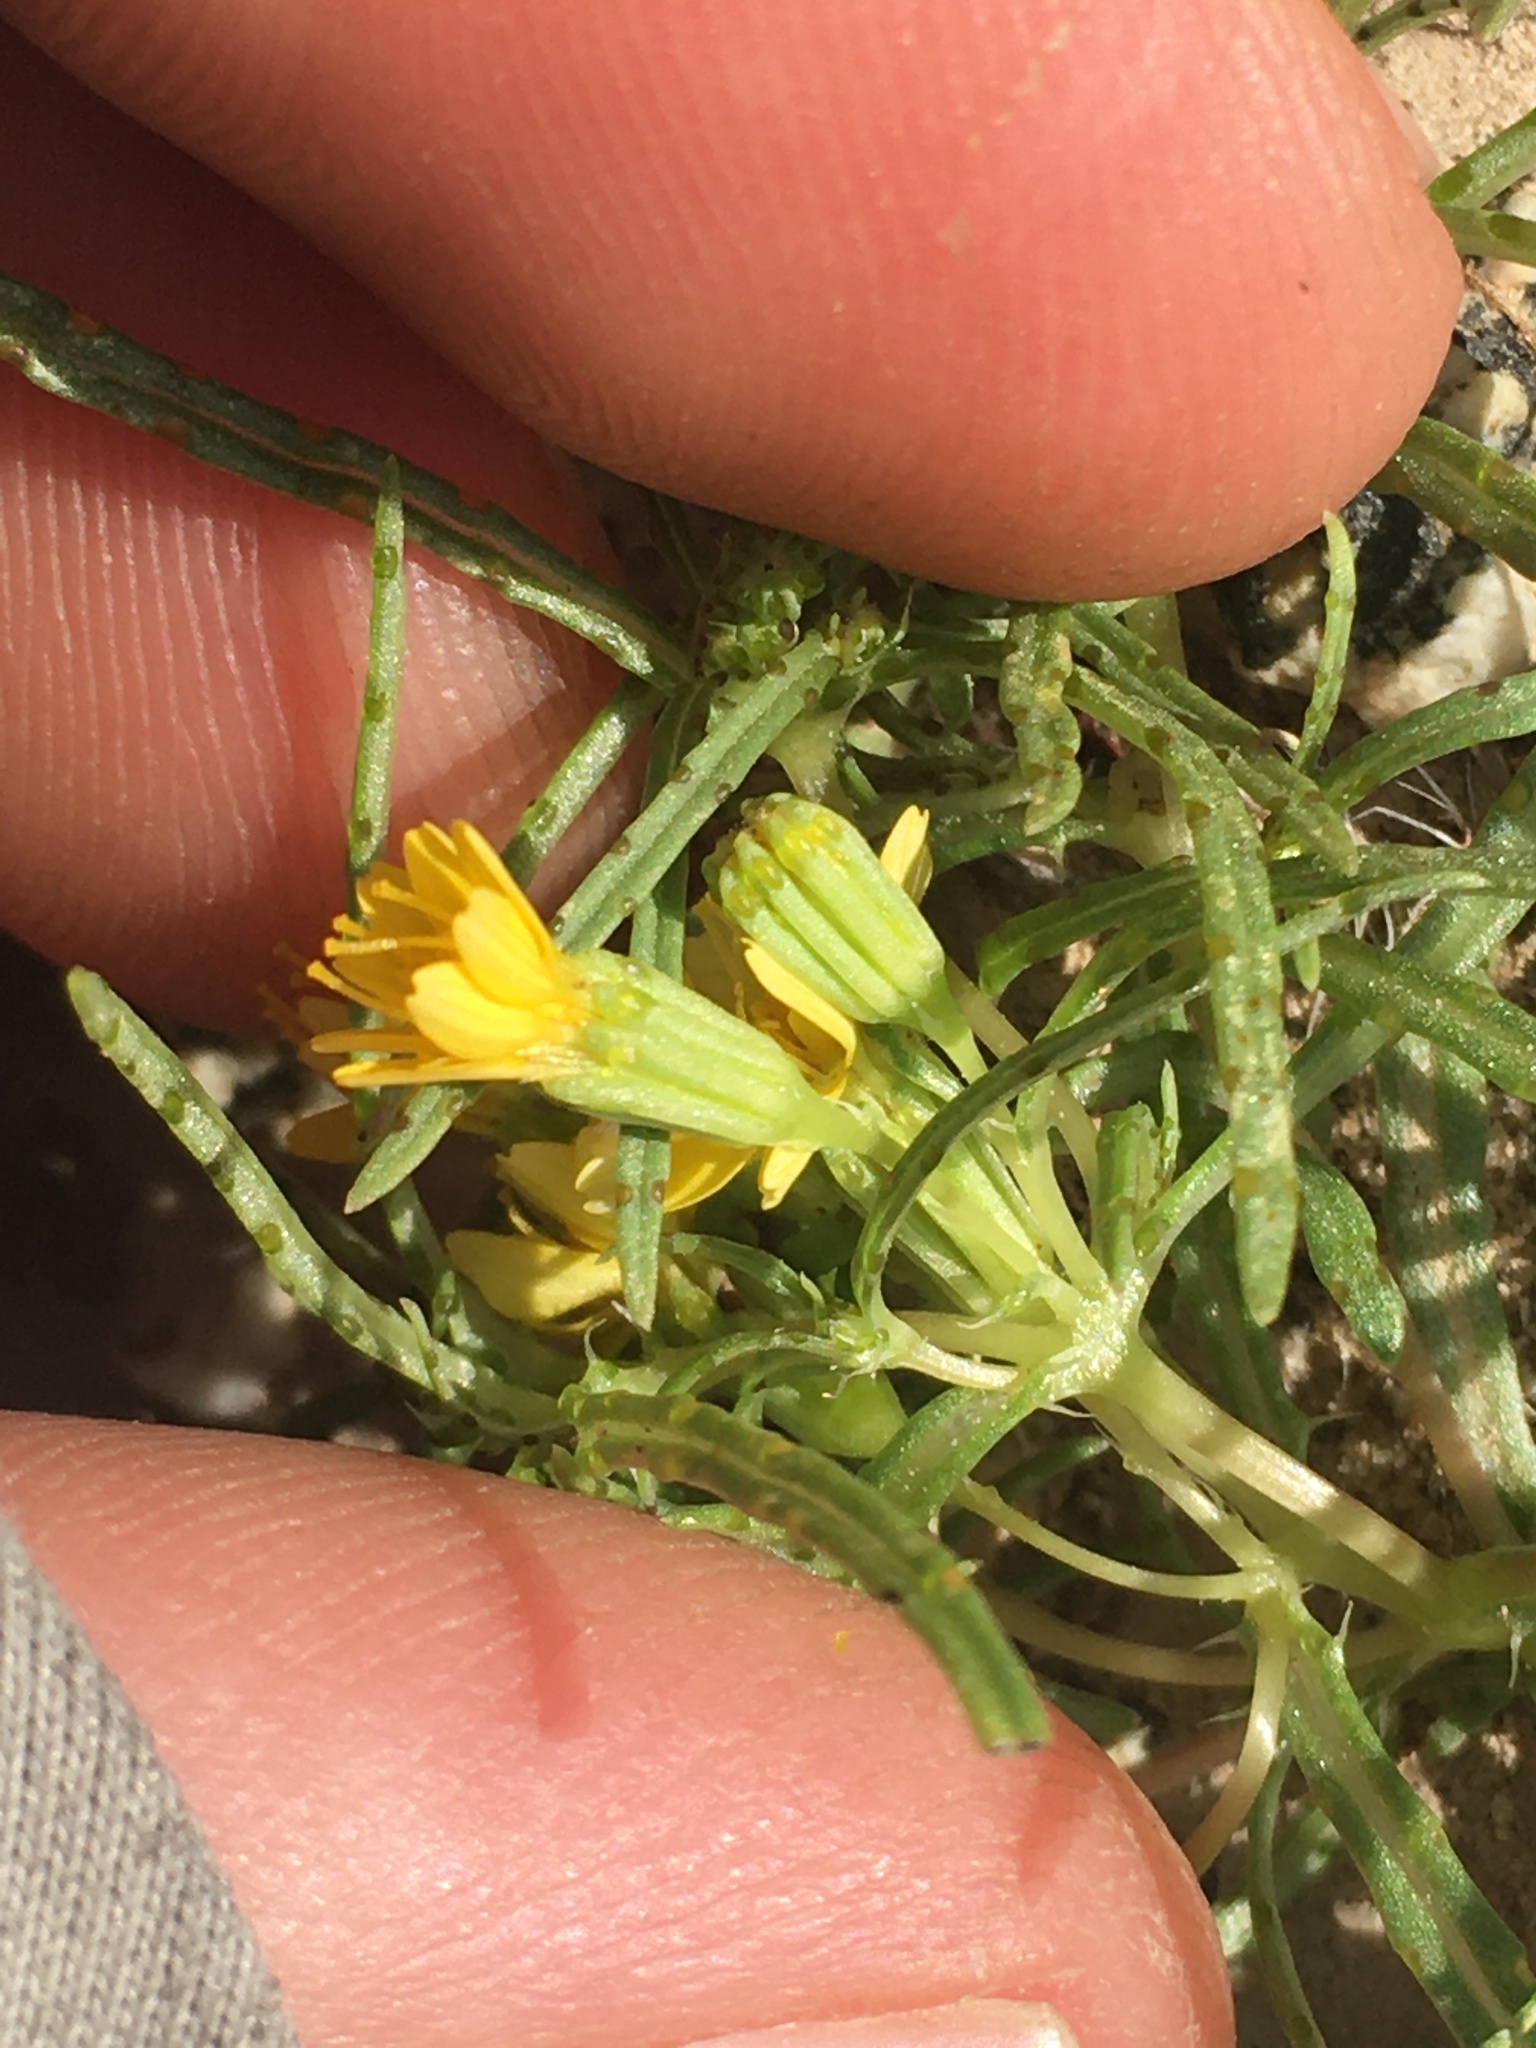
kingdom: Plantae
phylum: Tracheophyta
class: Magnoliopsida
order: Asterales
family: Asteraceae
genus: Pectis
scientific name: Pectis papposa
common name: Many-bristle chinchweed
